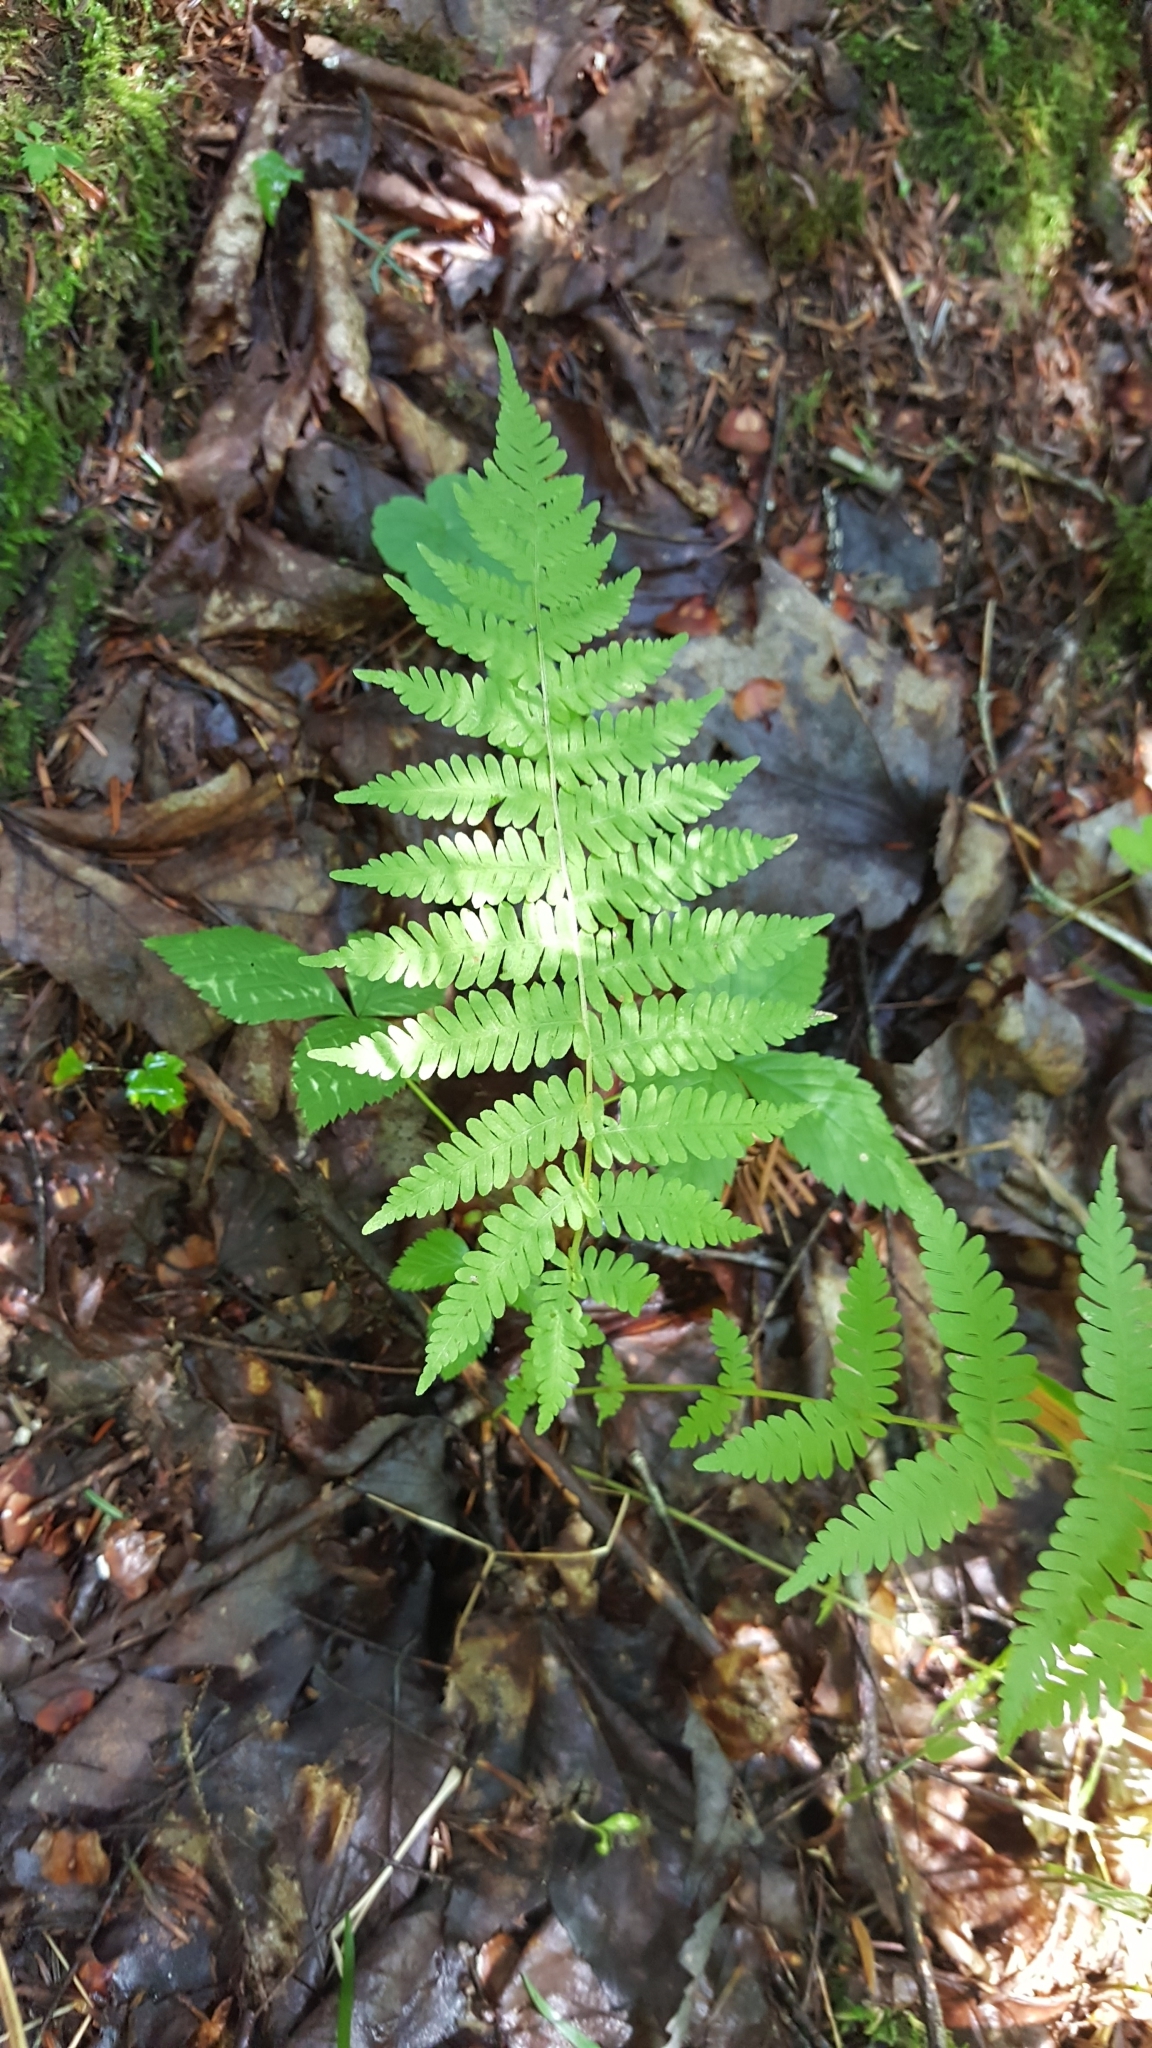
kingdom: Plantae
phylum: Tracheophyta
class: Polypodiopsida
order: Polypodiales
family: Thelypteridaceae
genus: Amauropelta
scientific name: Amauropelta noveboracensis
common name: New york fern
